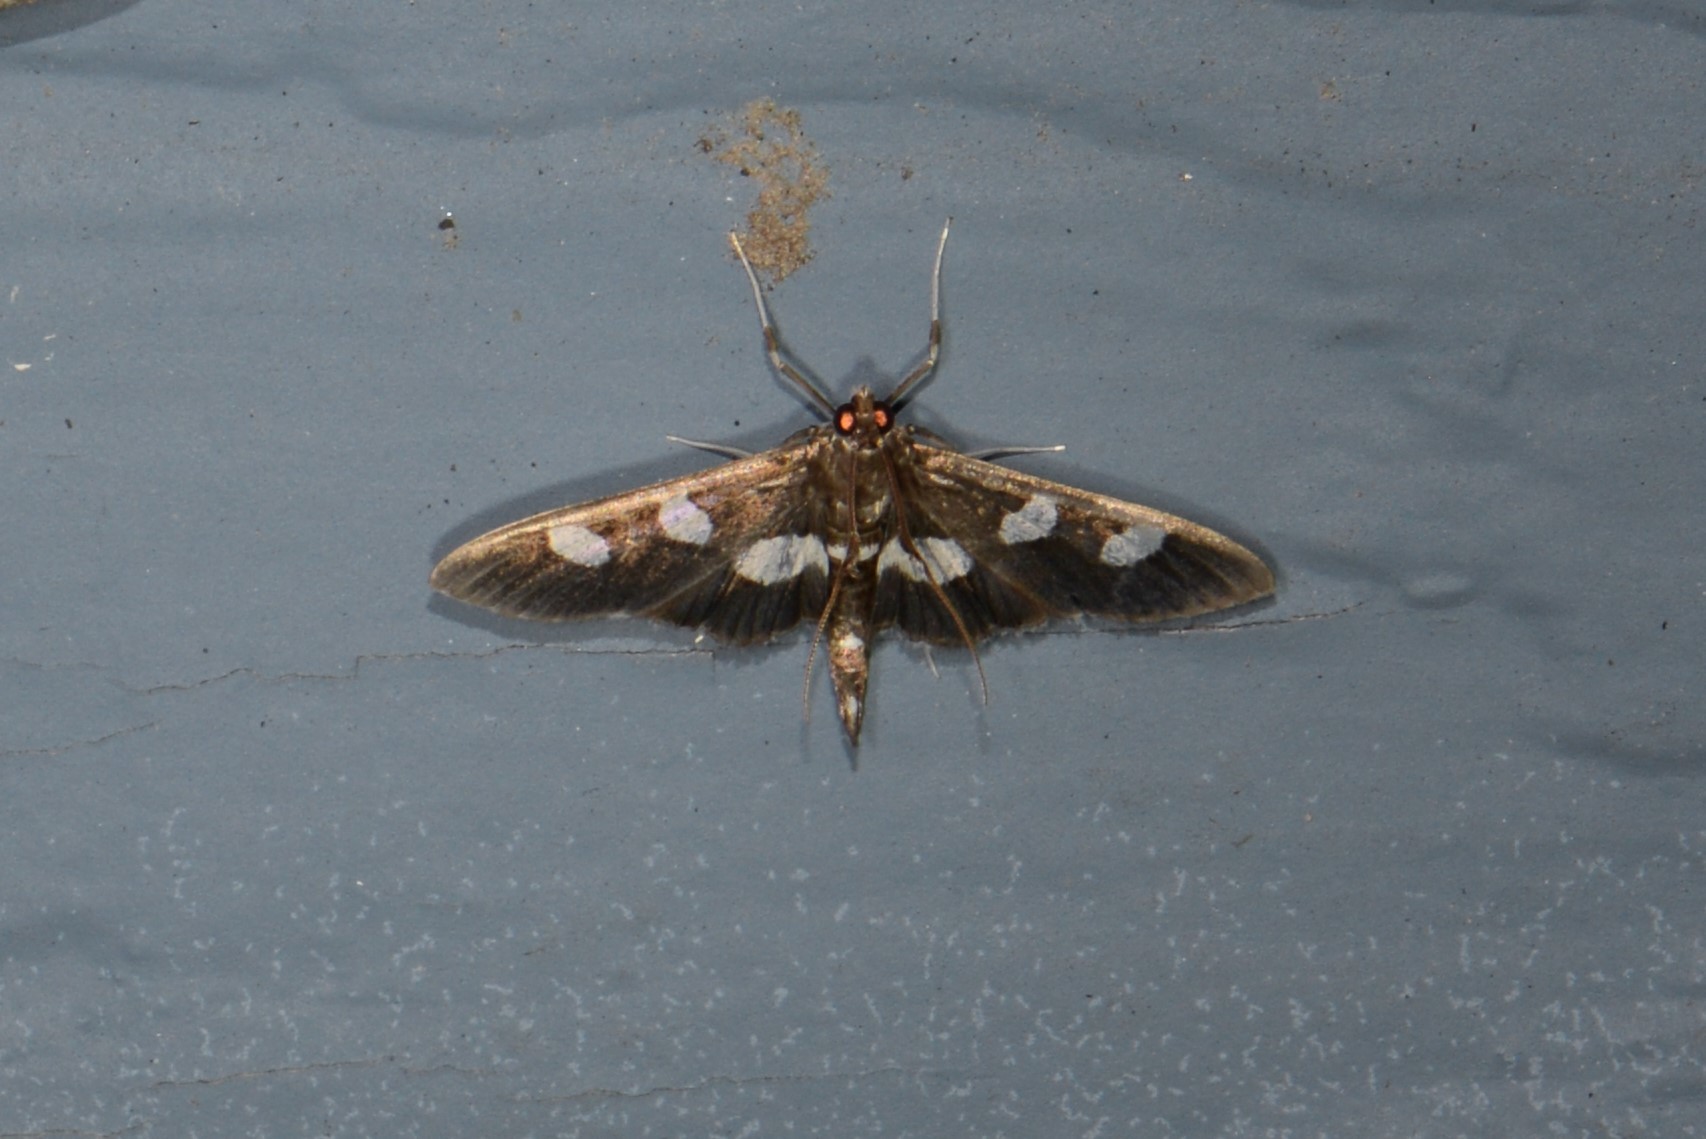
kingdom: Animalia
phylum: Arthropoda
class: Insecta
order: Lepidoptera
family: Crambidae
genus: Desmia
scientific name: Desmia funeralis
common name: Grape leaf folder moth
